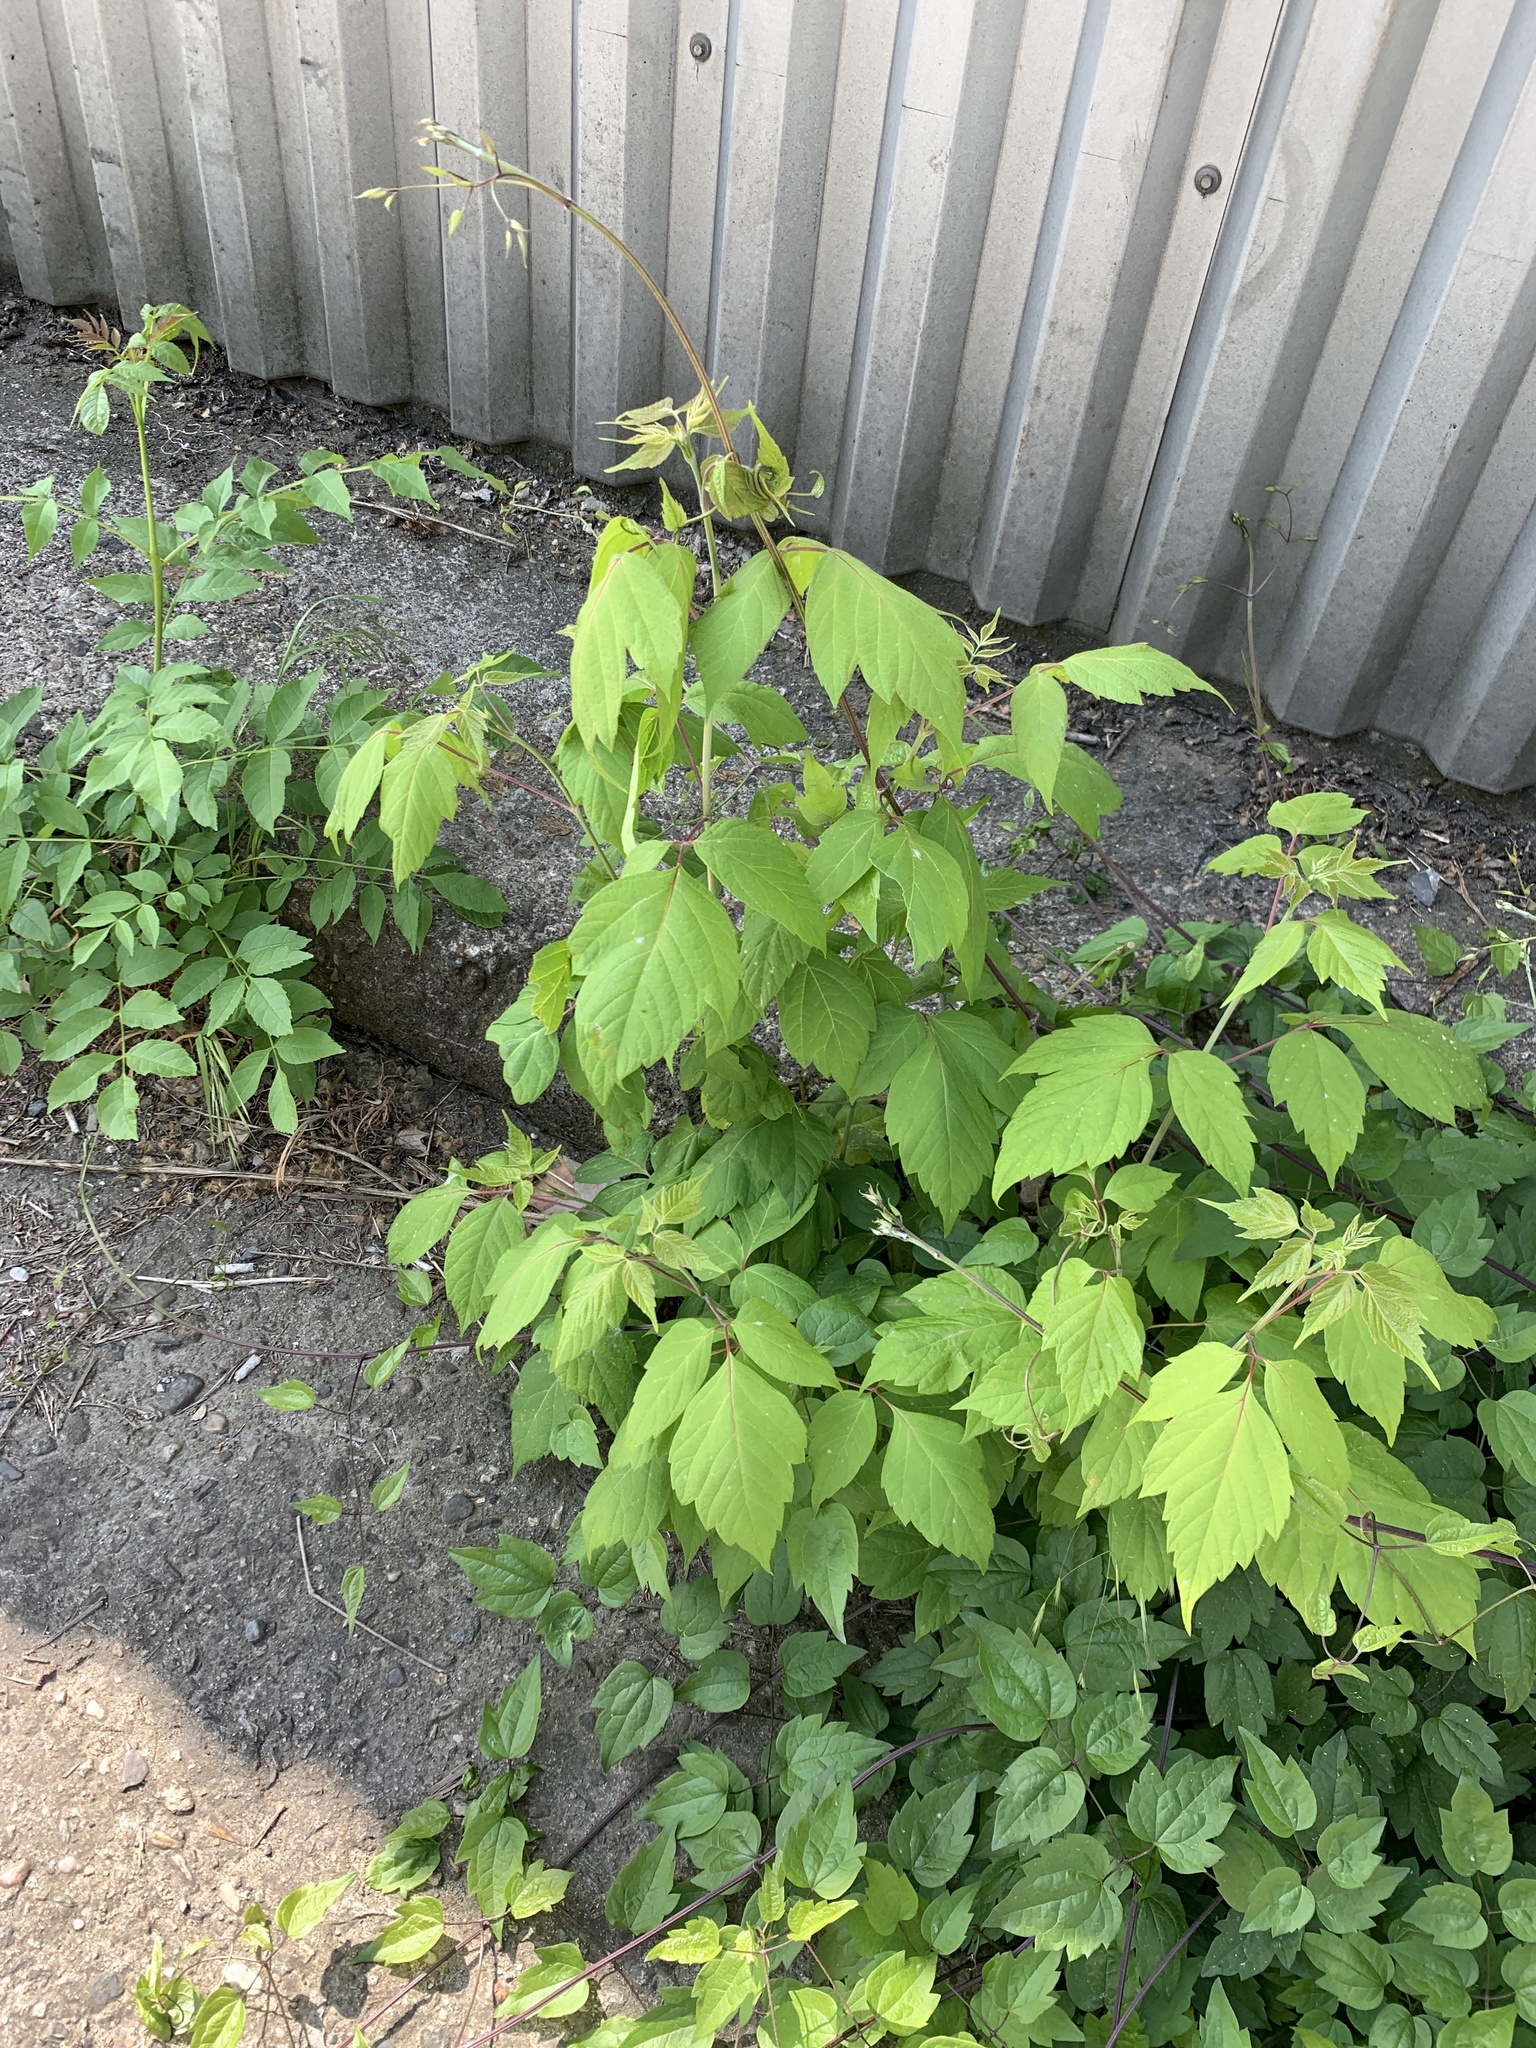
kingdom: Plantae
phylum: Tracheophyta
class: Magnoliopsida
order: Sapindales
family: Sapindaceae
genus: Acer
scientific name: Acer negundo
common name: Ashleaf maple
